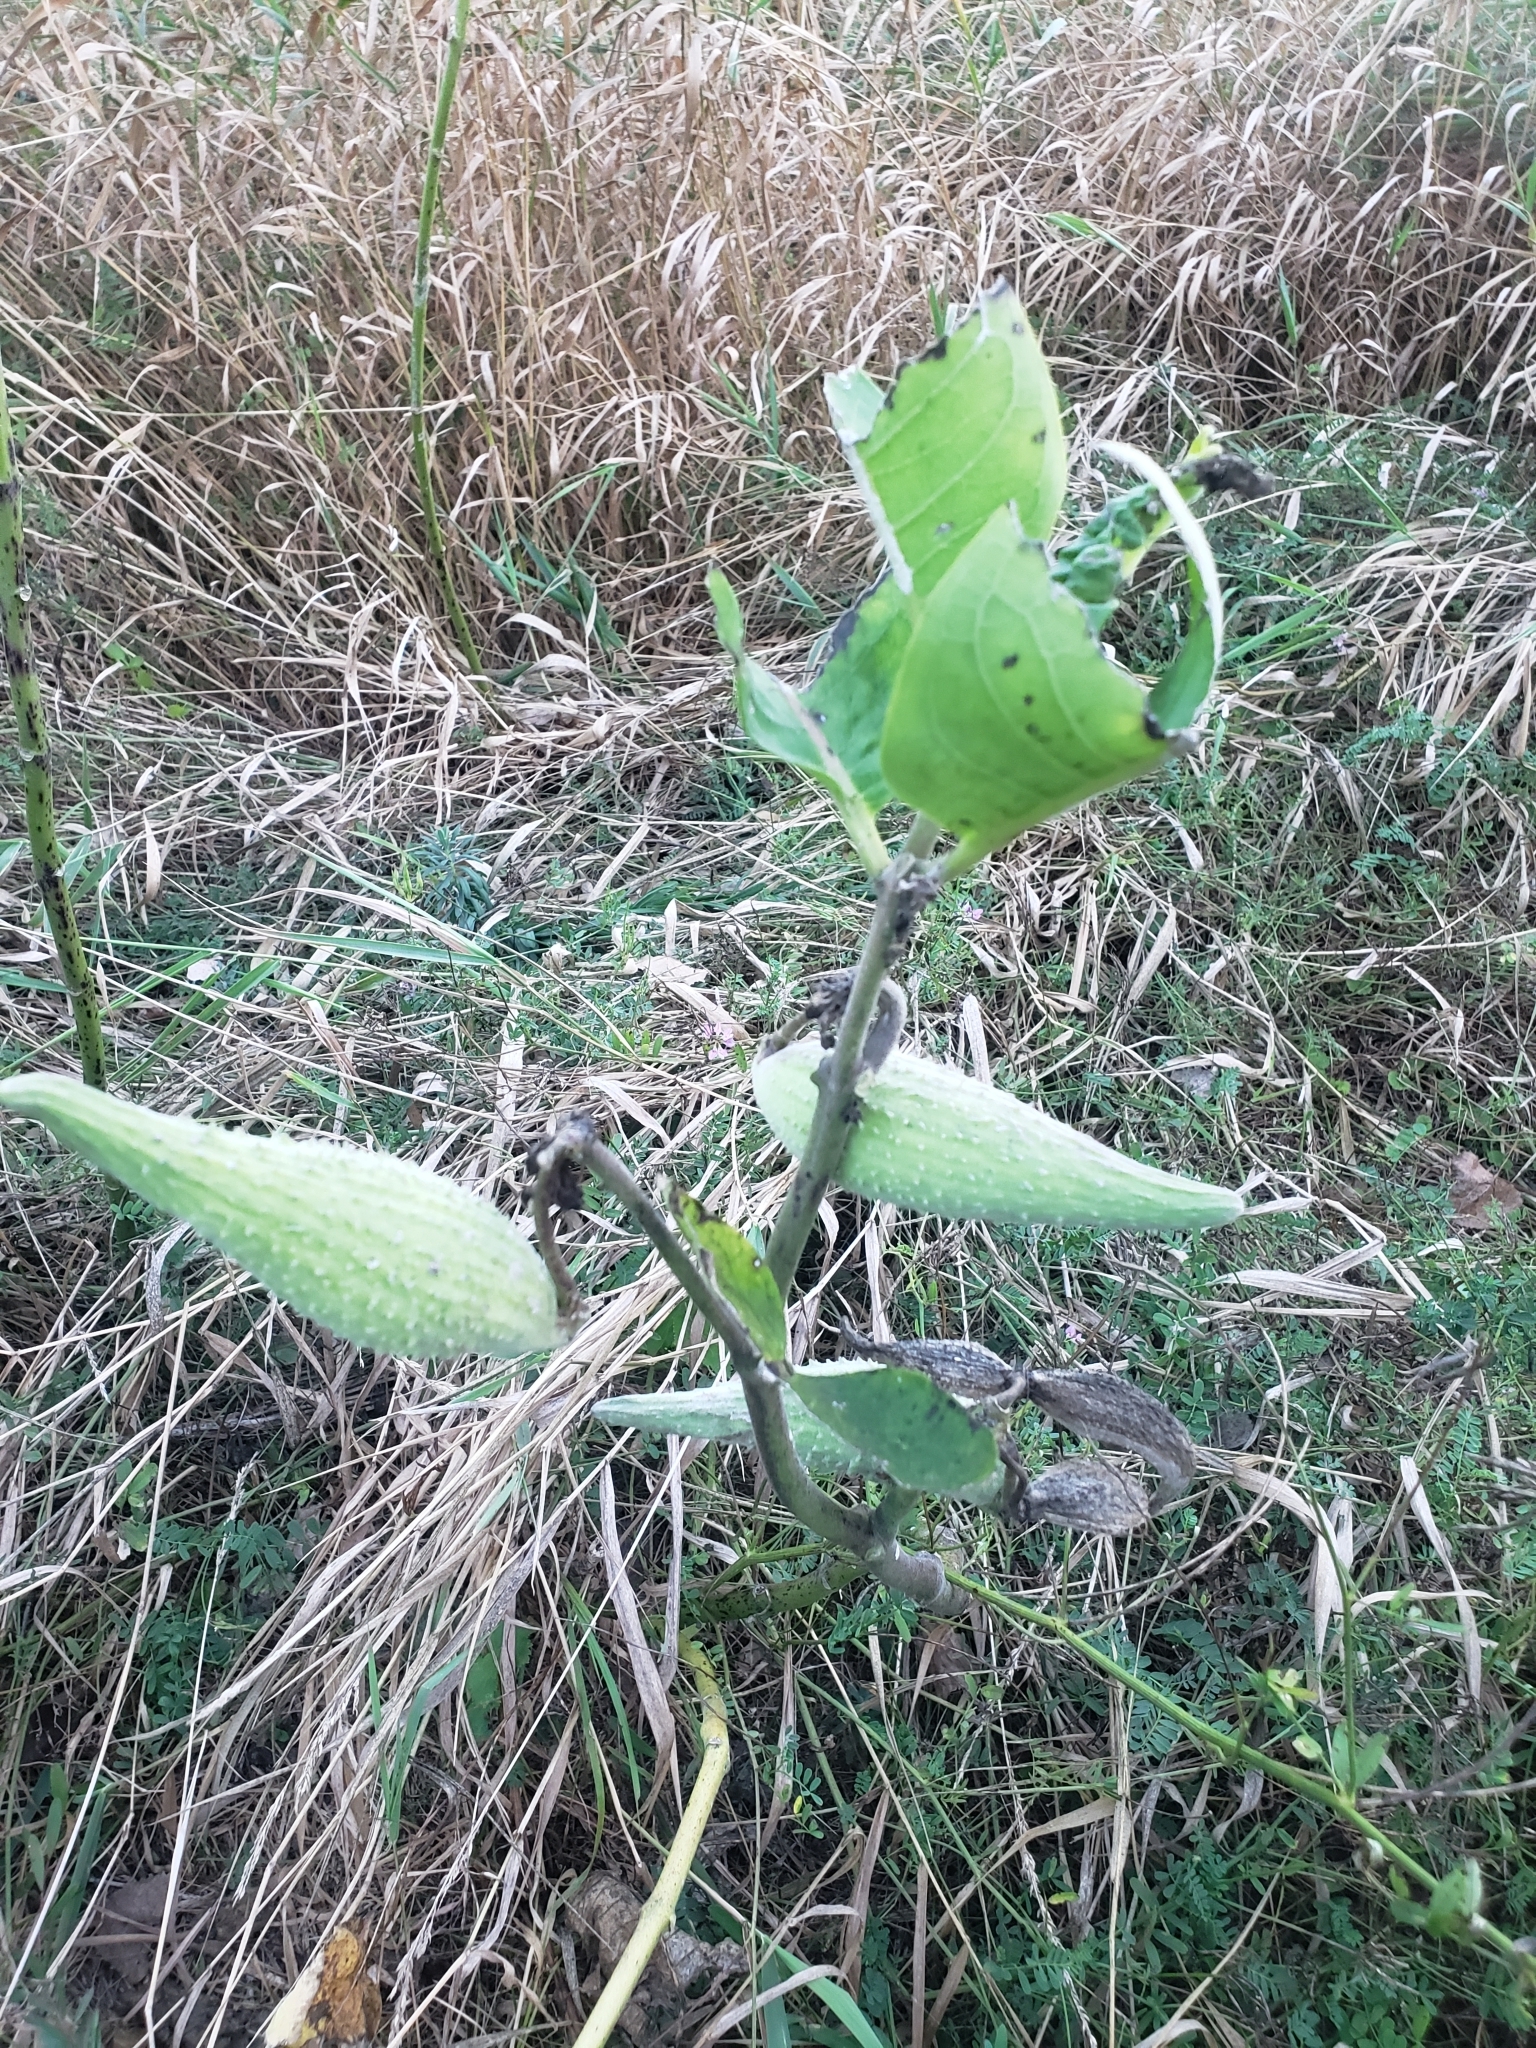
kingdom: Plantae
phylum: Tracheophyta
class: Magnoliopsida
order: Gentianales
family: Apocynaceae
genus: Asclepias
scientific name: Asclepias syriaca
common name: Common milkweed
